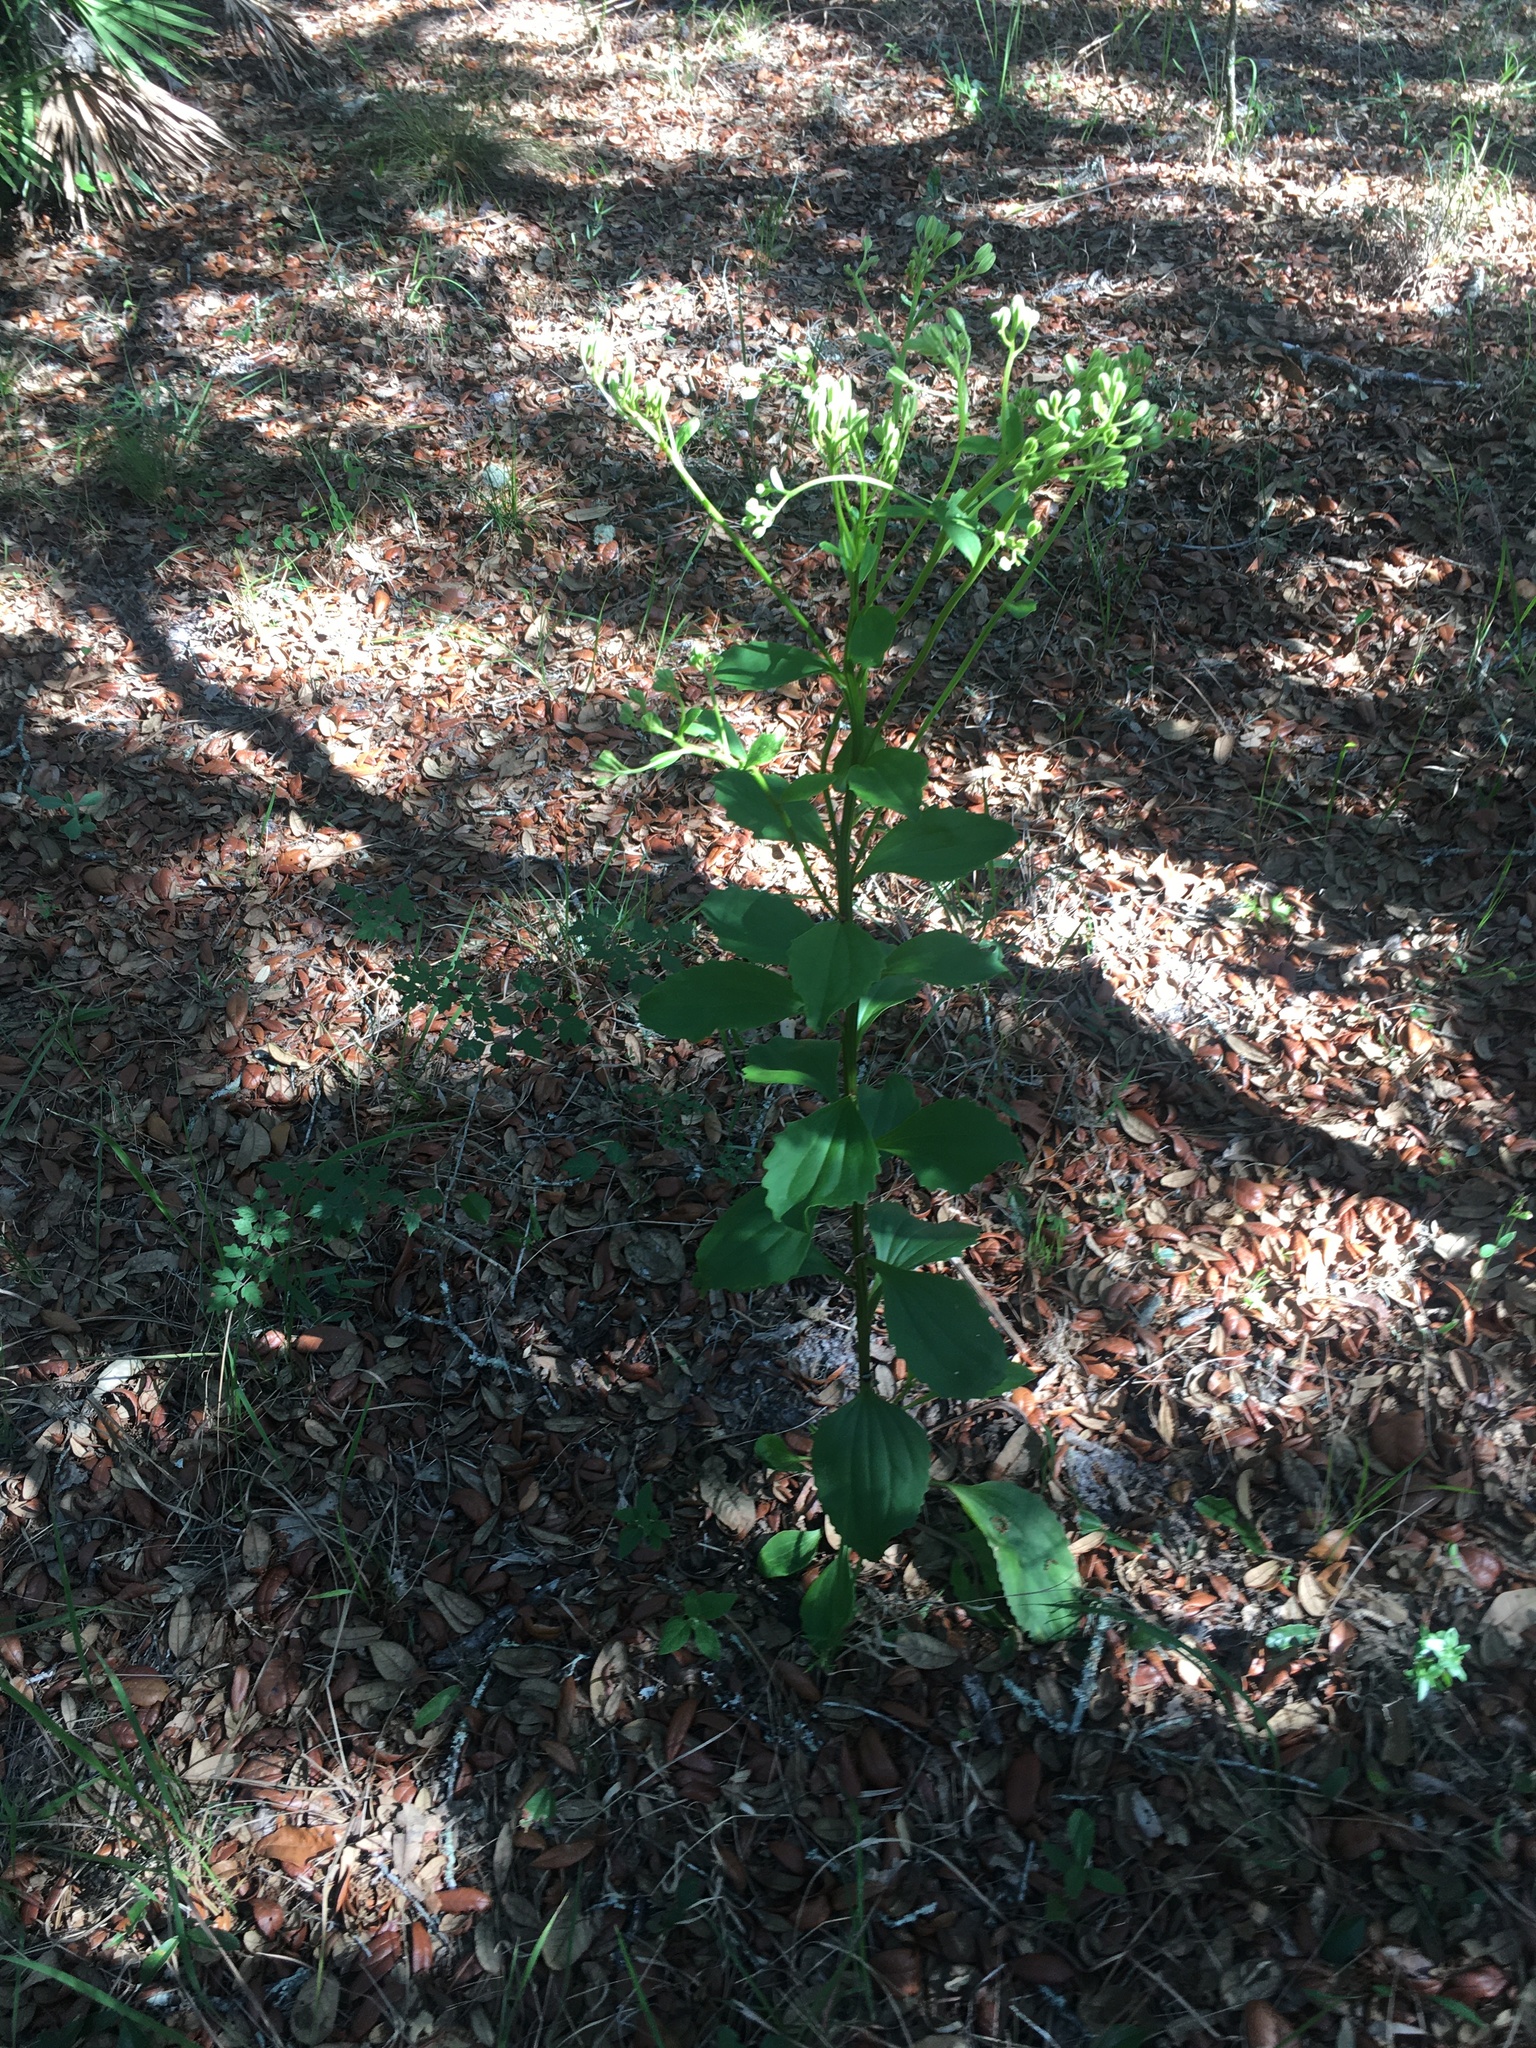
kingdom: Plantae
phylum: Tracheophyta
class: Magnoliopsida
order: Asterales
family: Asteraceae
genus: Arnoglossum
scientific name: Arnoglossum floridanum
